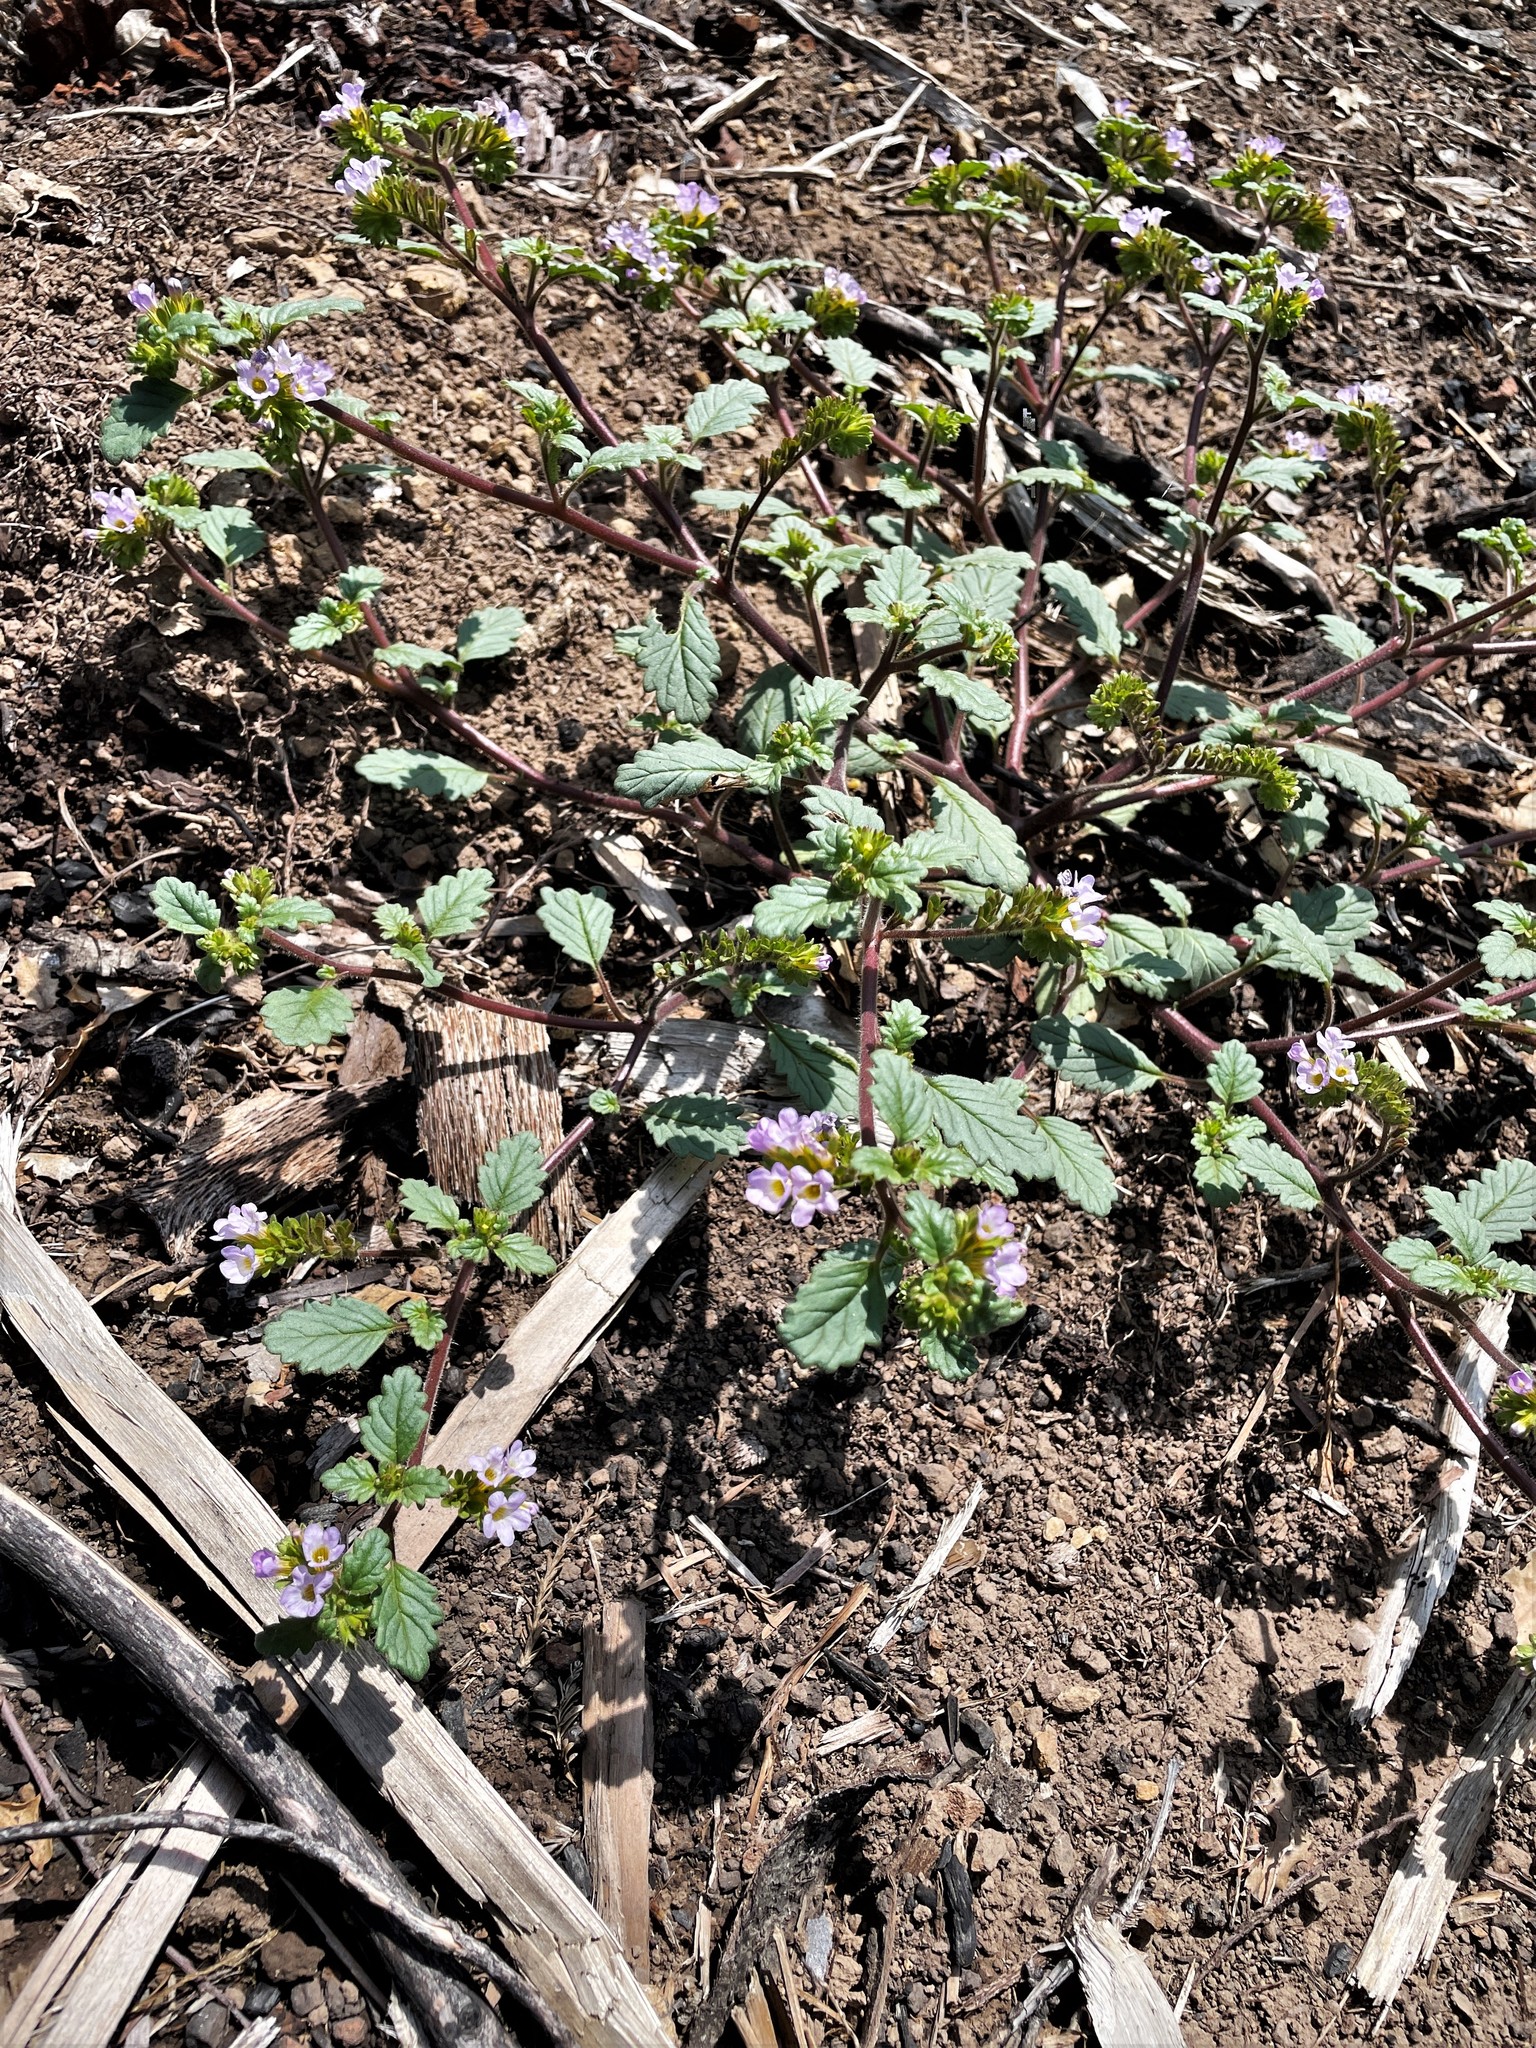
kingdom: Plantae
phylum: Tracheophyta
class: Magnoliopsida
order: Boraginales
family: Hydrophyllaceae
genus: Phacelia
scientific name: Phacelia suaveolens
